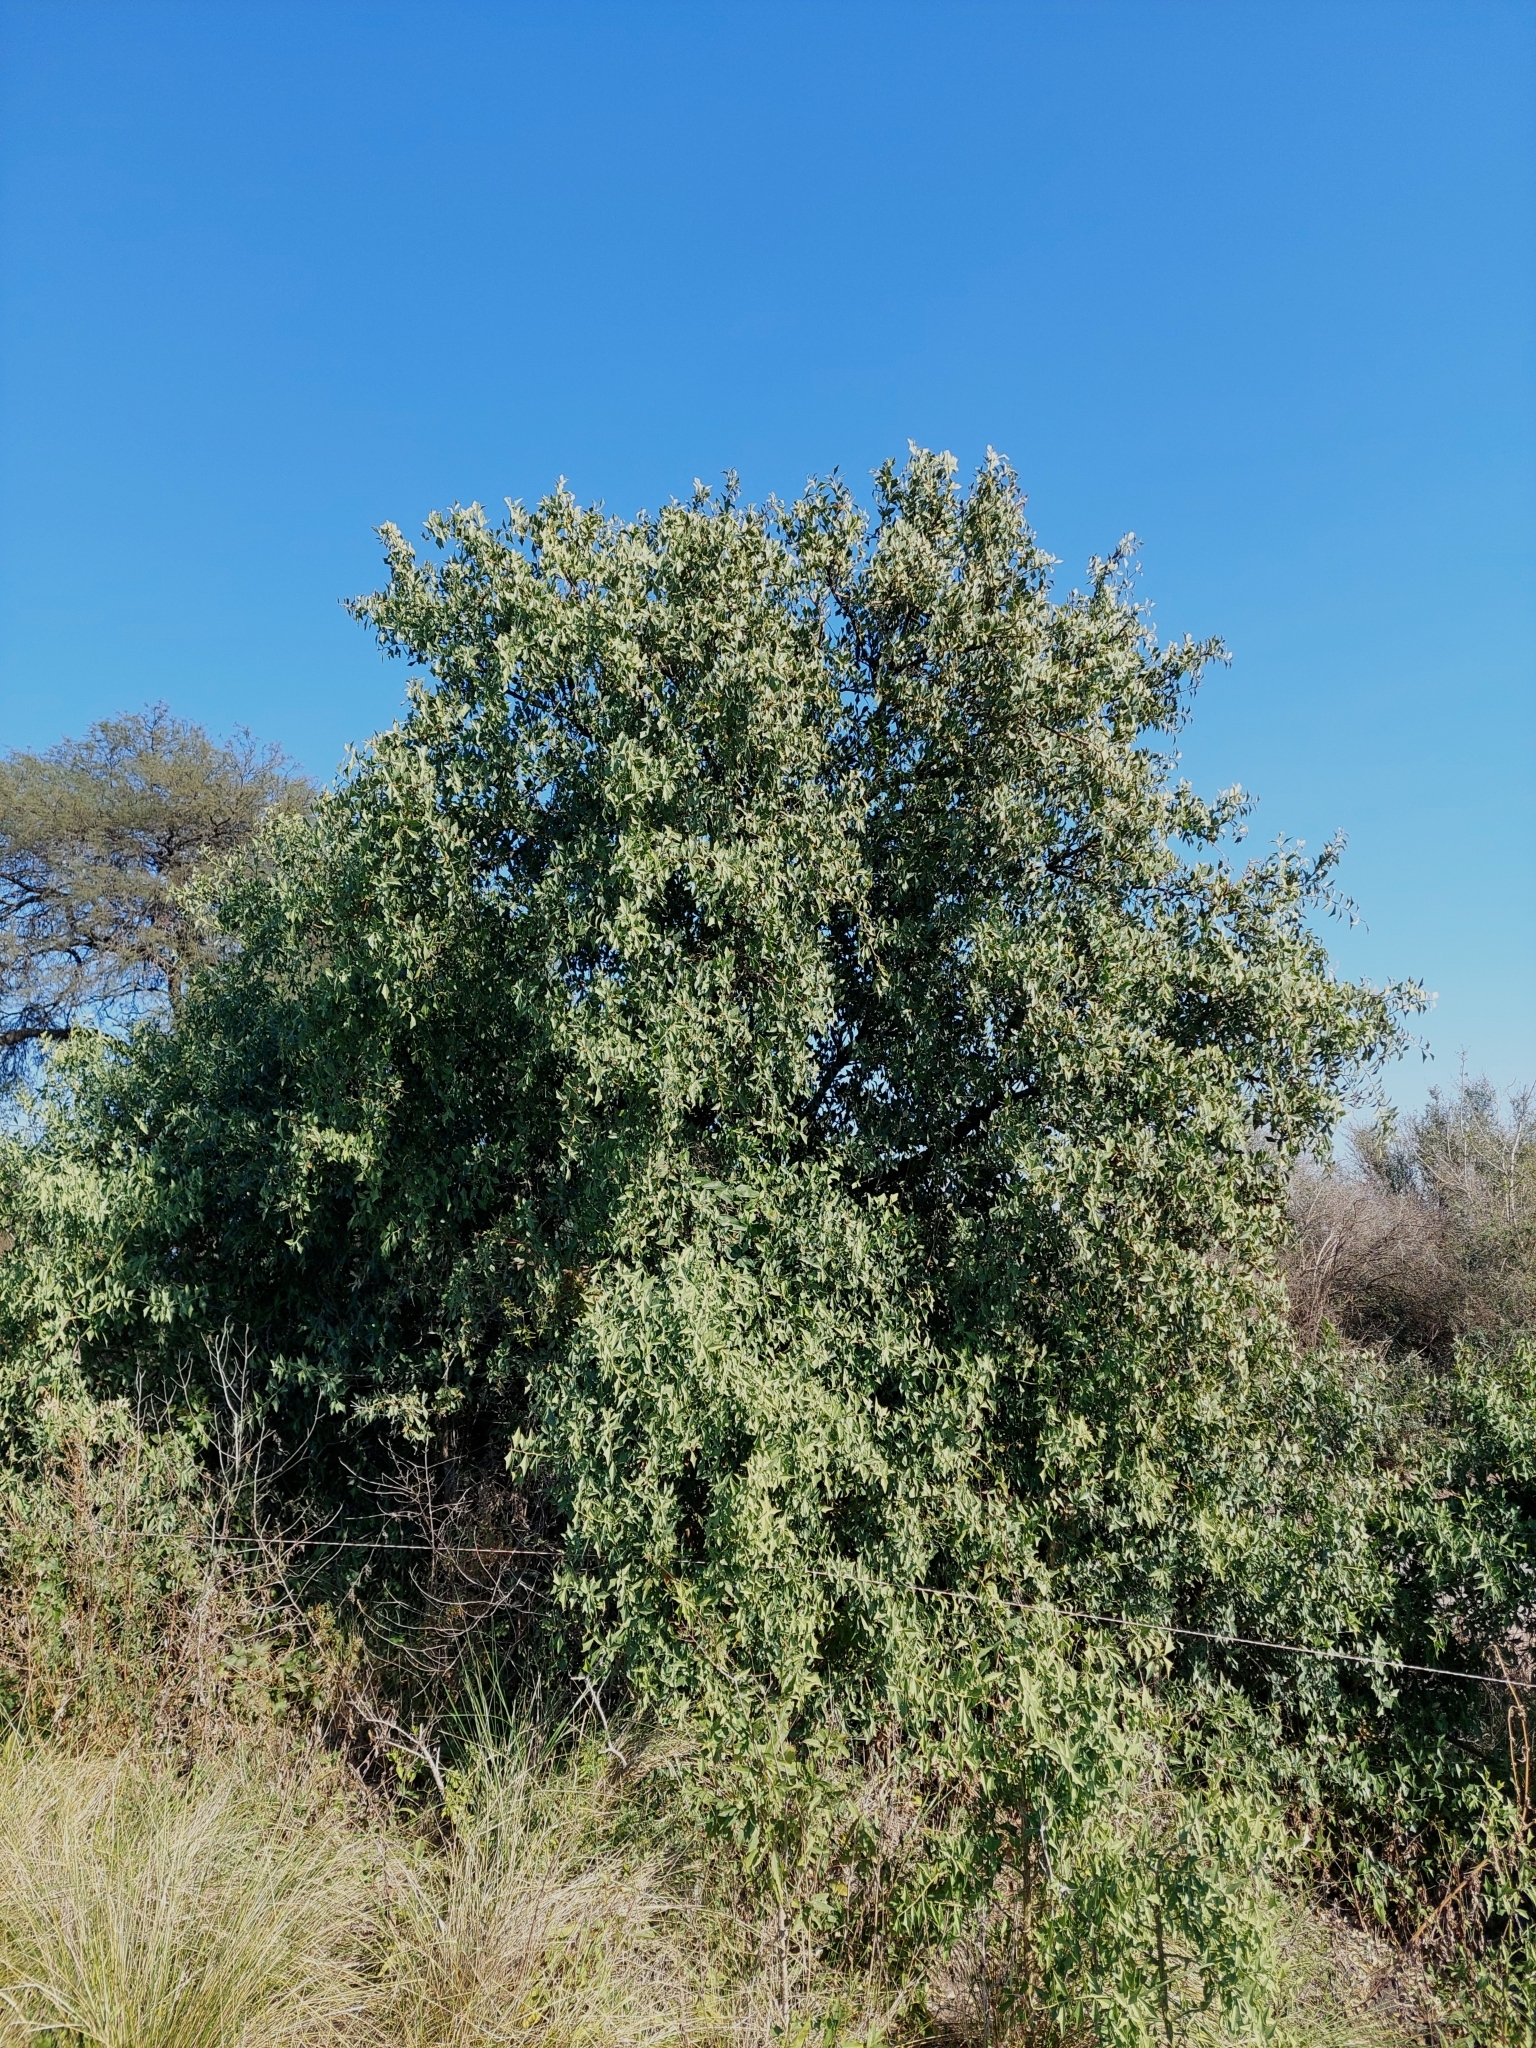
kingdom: Plantae
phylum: Tracheophyta
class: Magnoliopsida
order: Santalales
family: Cervantesiaceae
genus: Jodina
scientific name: Jodina rhombifolia
